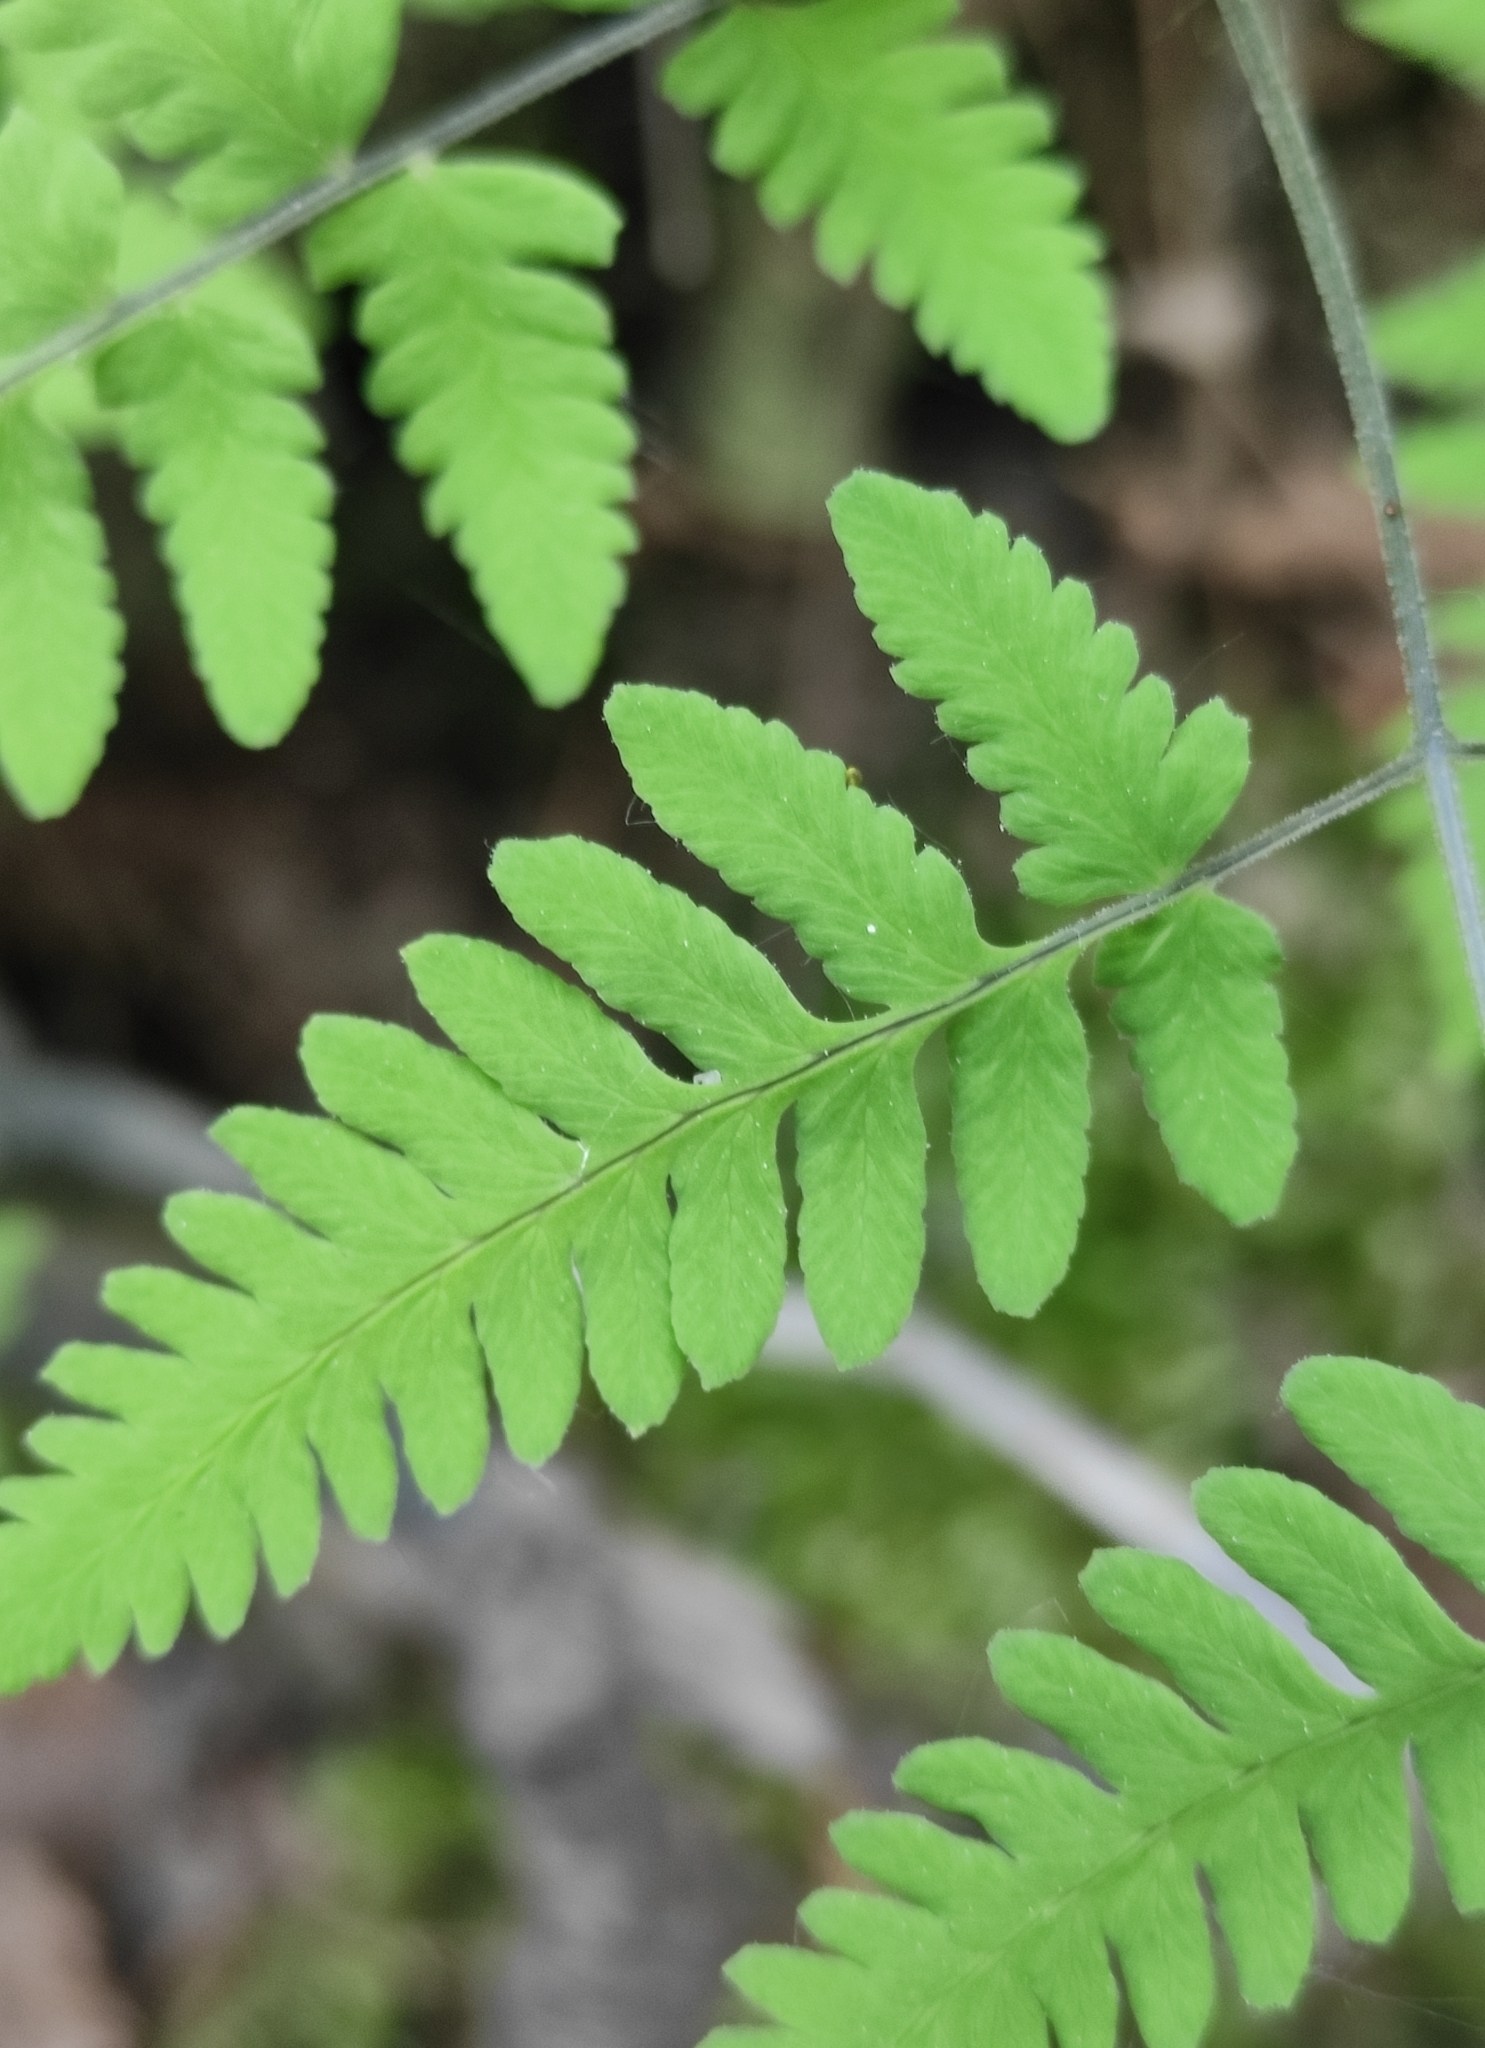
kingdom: Plantae
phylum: Tracheophyta
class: Polypodiopsida
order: Polypodiales
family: Cystopteridaceae
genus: Gymnocarpium
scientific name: Gymnocarpium jessoense
